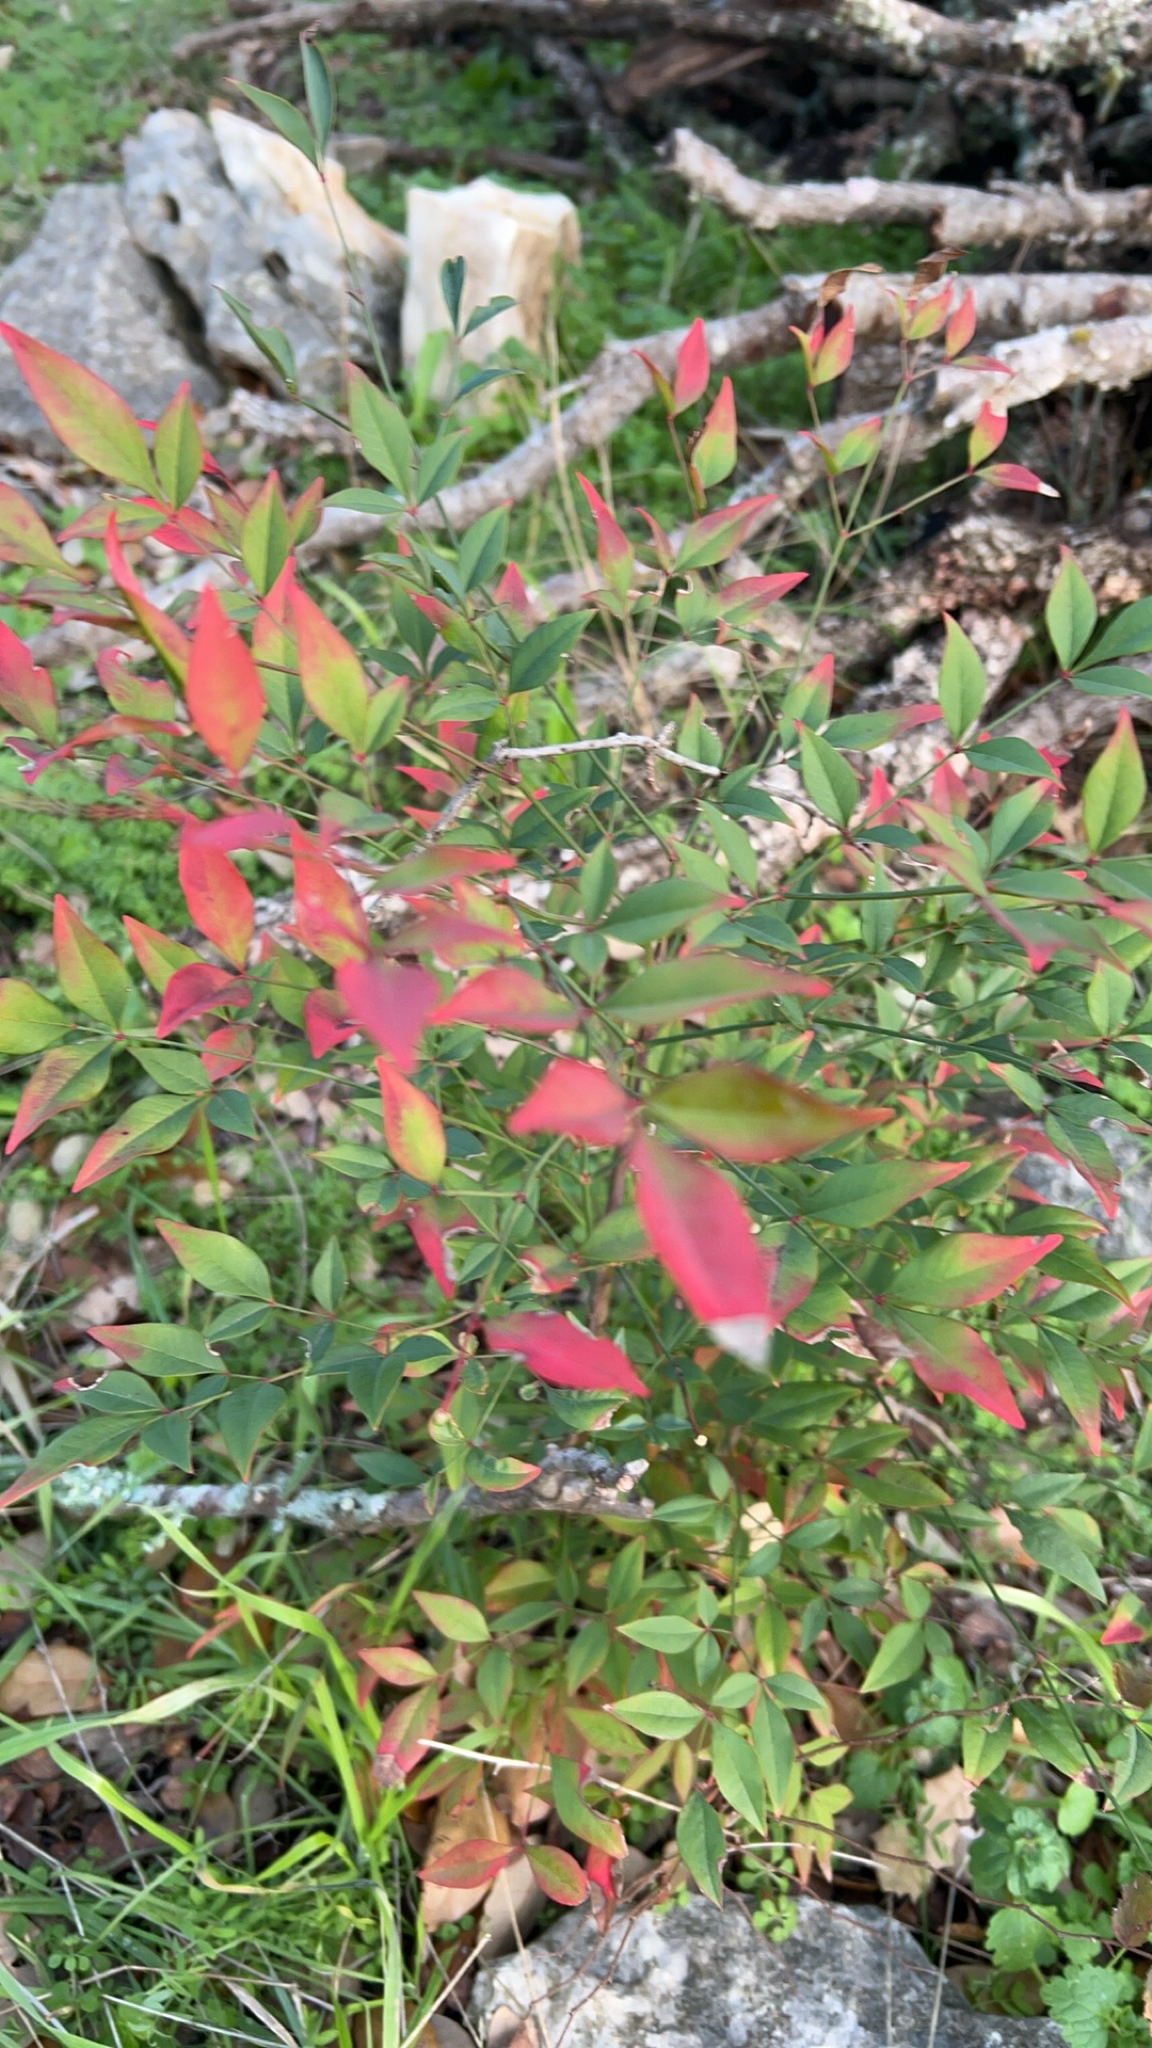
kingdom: Plantae
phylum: Tracheophyta
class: Magnoliopsida
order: Ranunculales
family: Berberidaceae
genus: Nandina
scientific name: Nandina domestica
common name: Sacred bamboo
